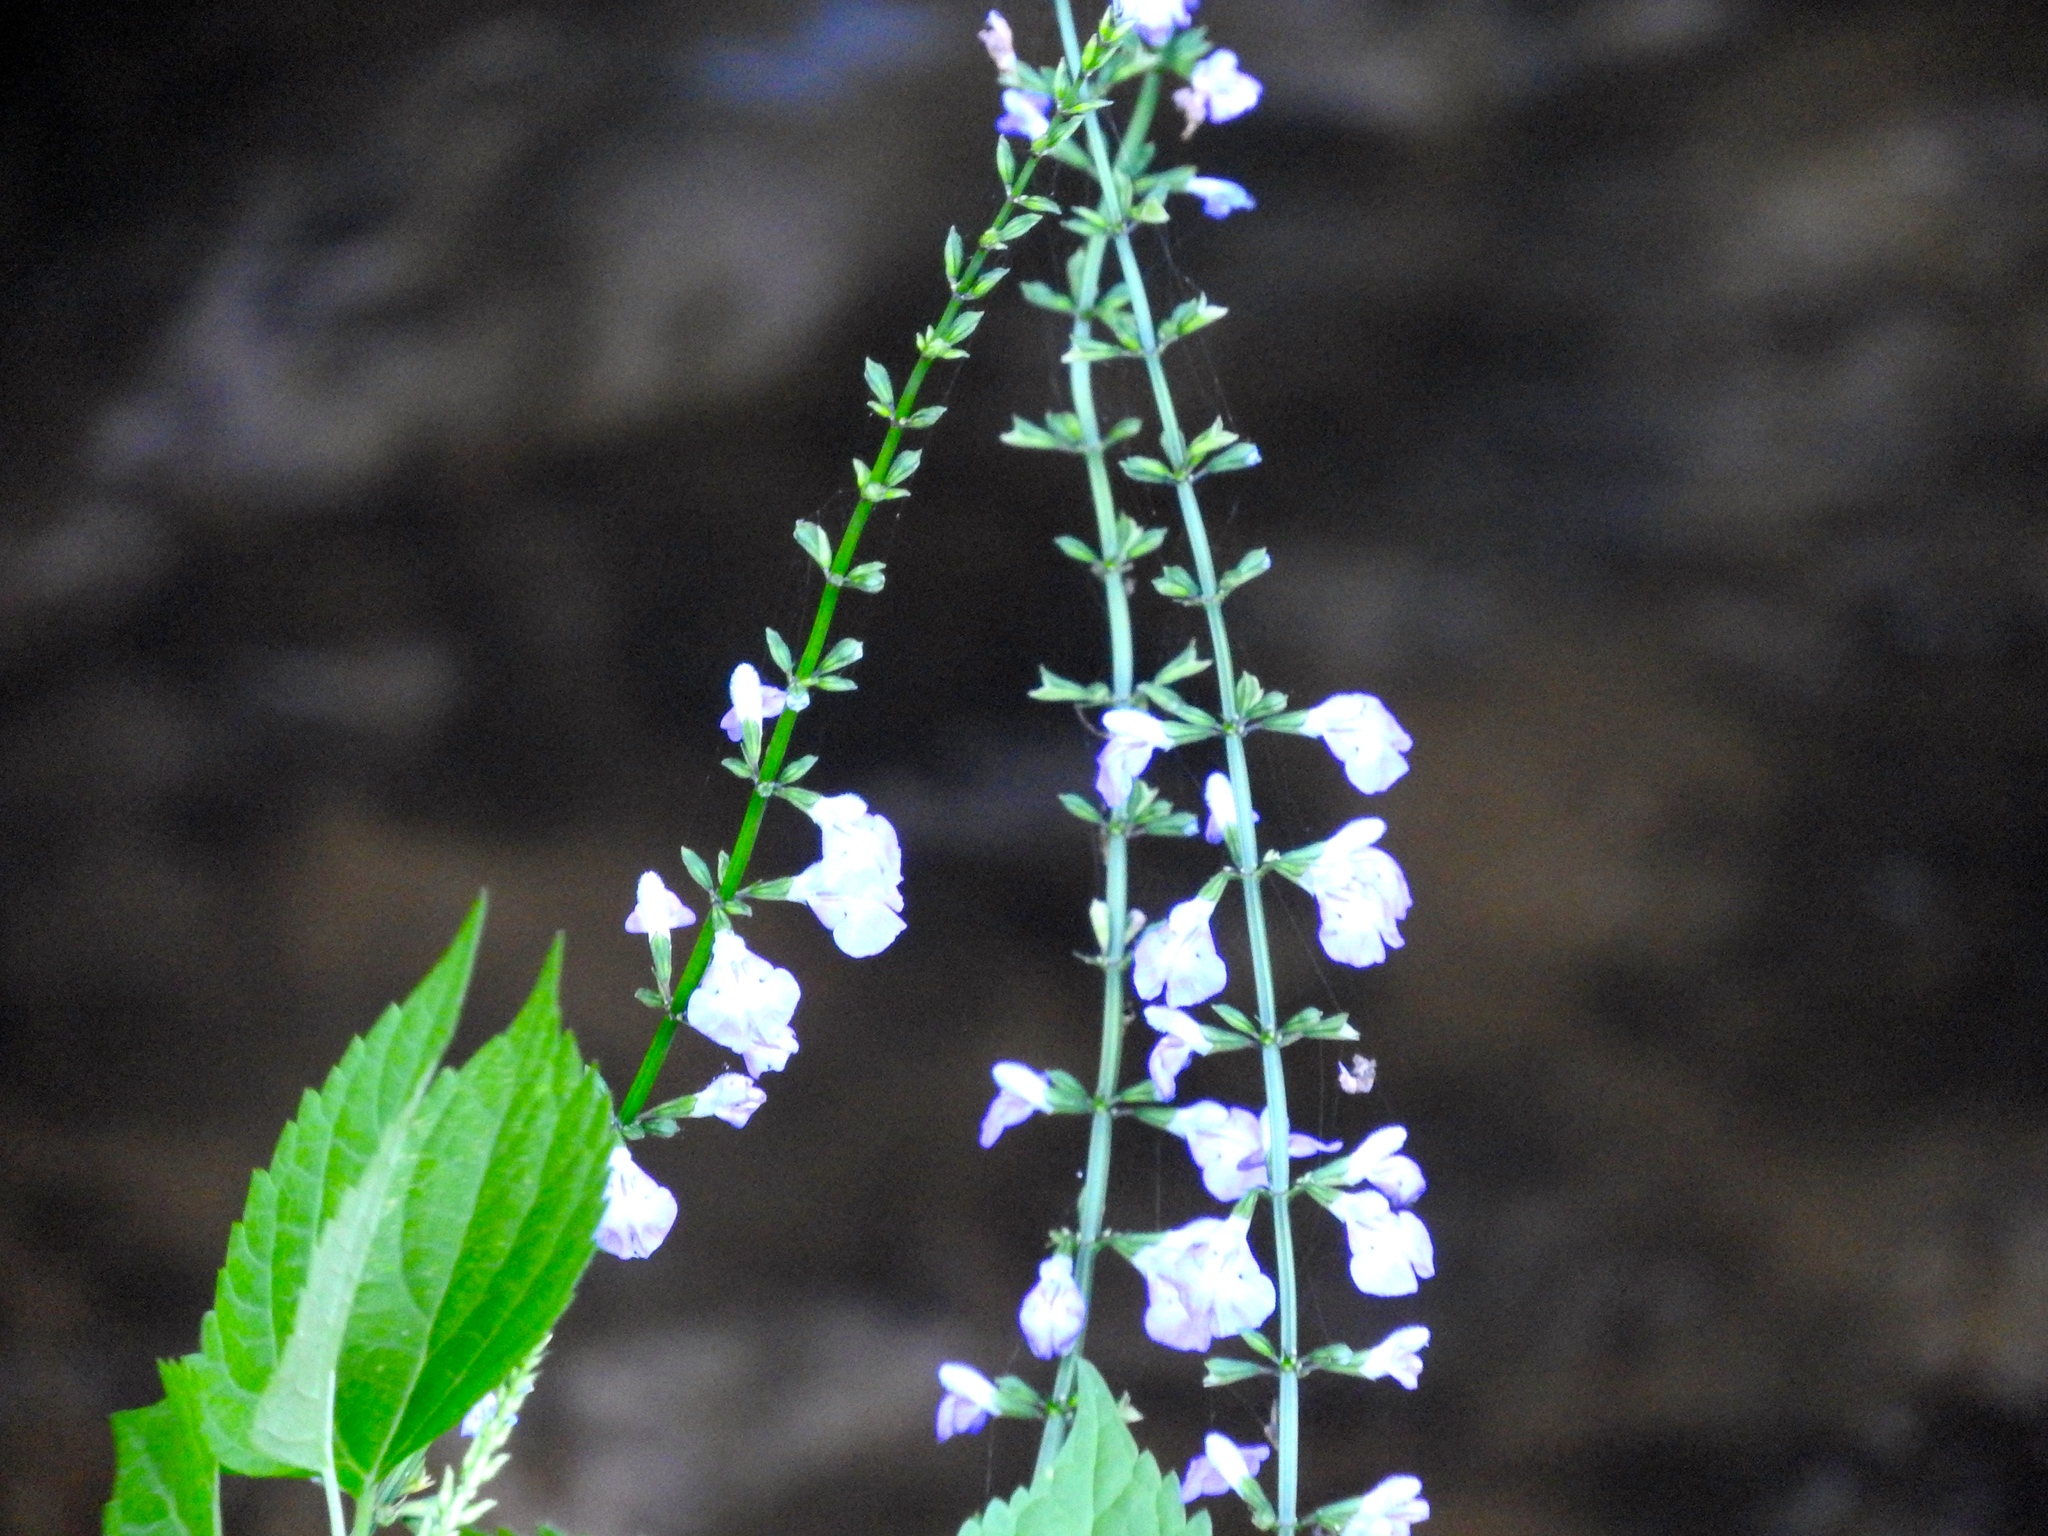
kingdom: Plantae
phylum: Tracheophyta
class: Magnoliopsida
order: Lamiales
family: Lamiaceae
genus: Salvia
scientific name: Salvia languidula
